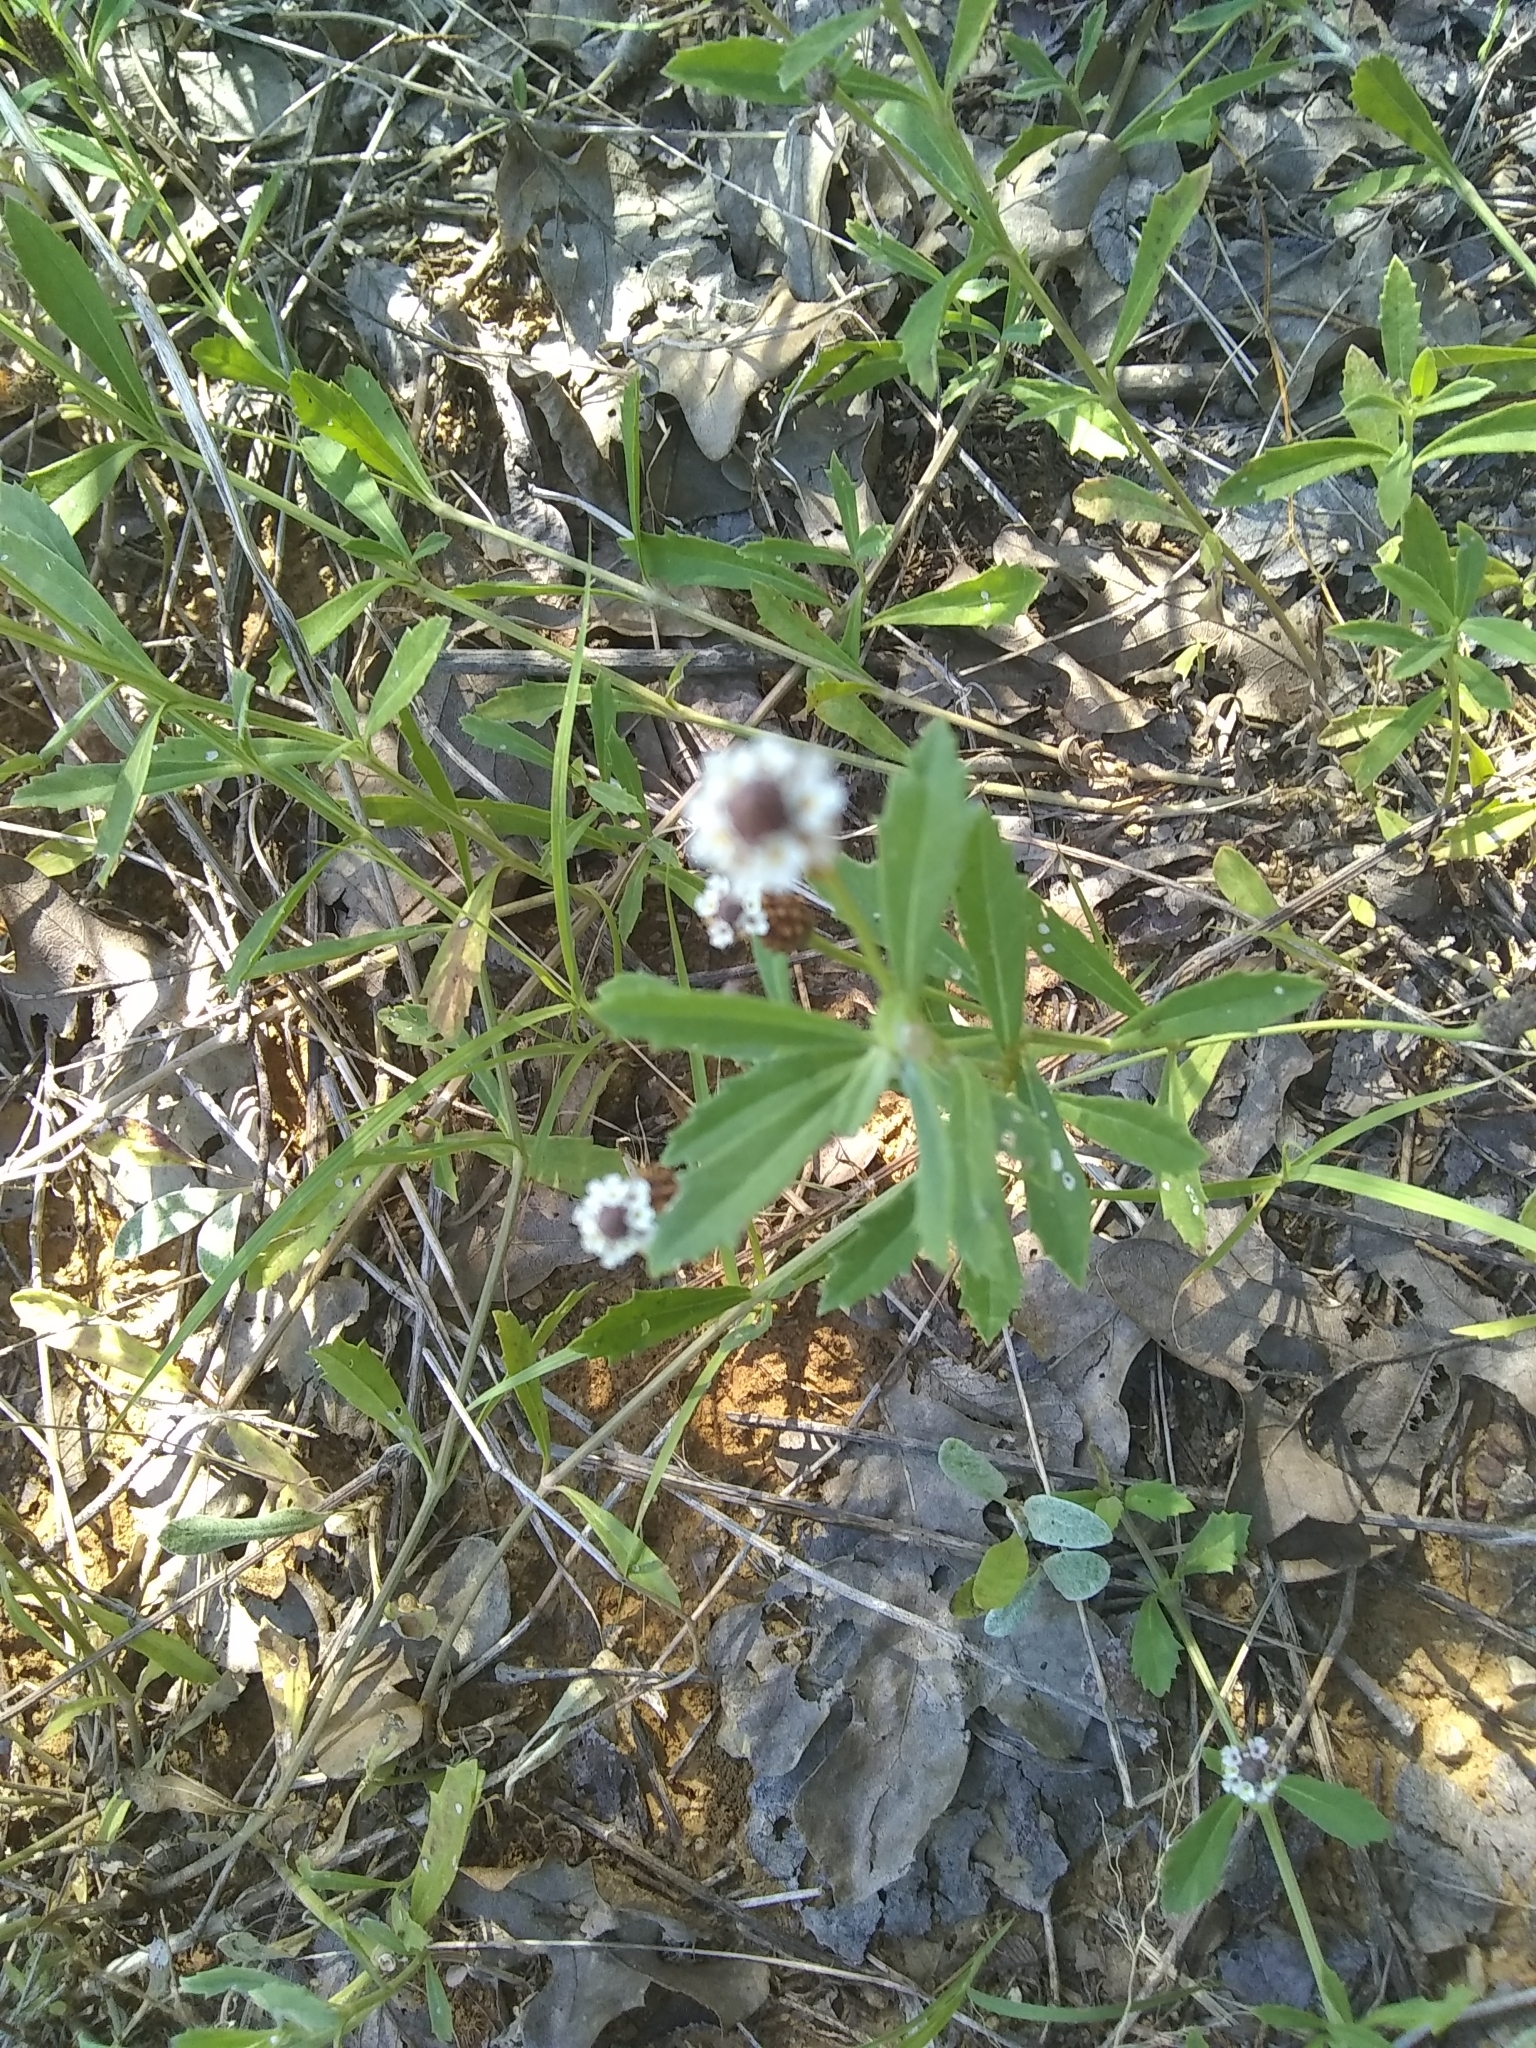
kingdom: Plantae
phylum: Tracheophyta
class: Magnoliopsida
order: Lamiales
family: Verbenaceae
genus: Phyla
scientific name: Phyla nodiflora
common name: Frogfruit
